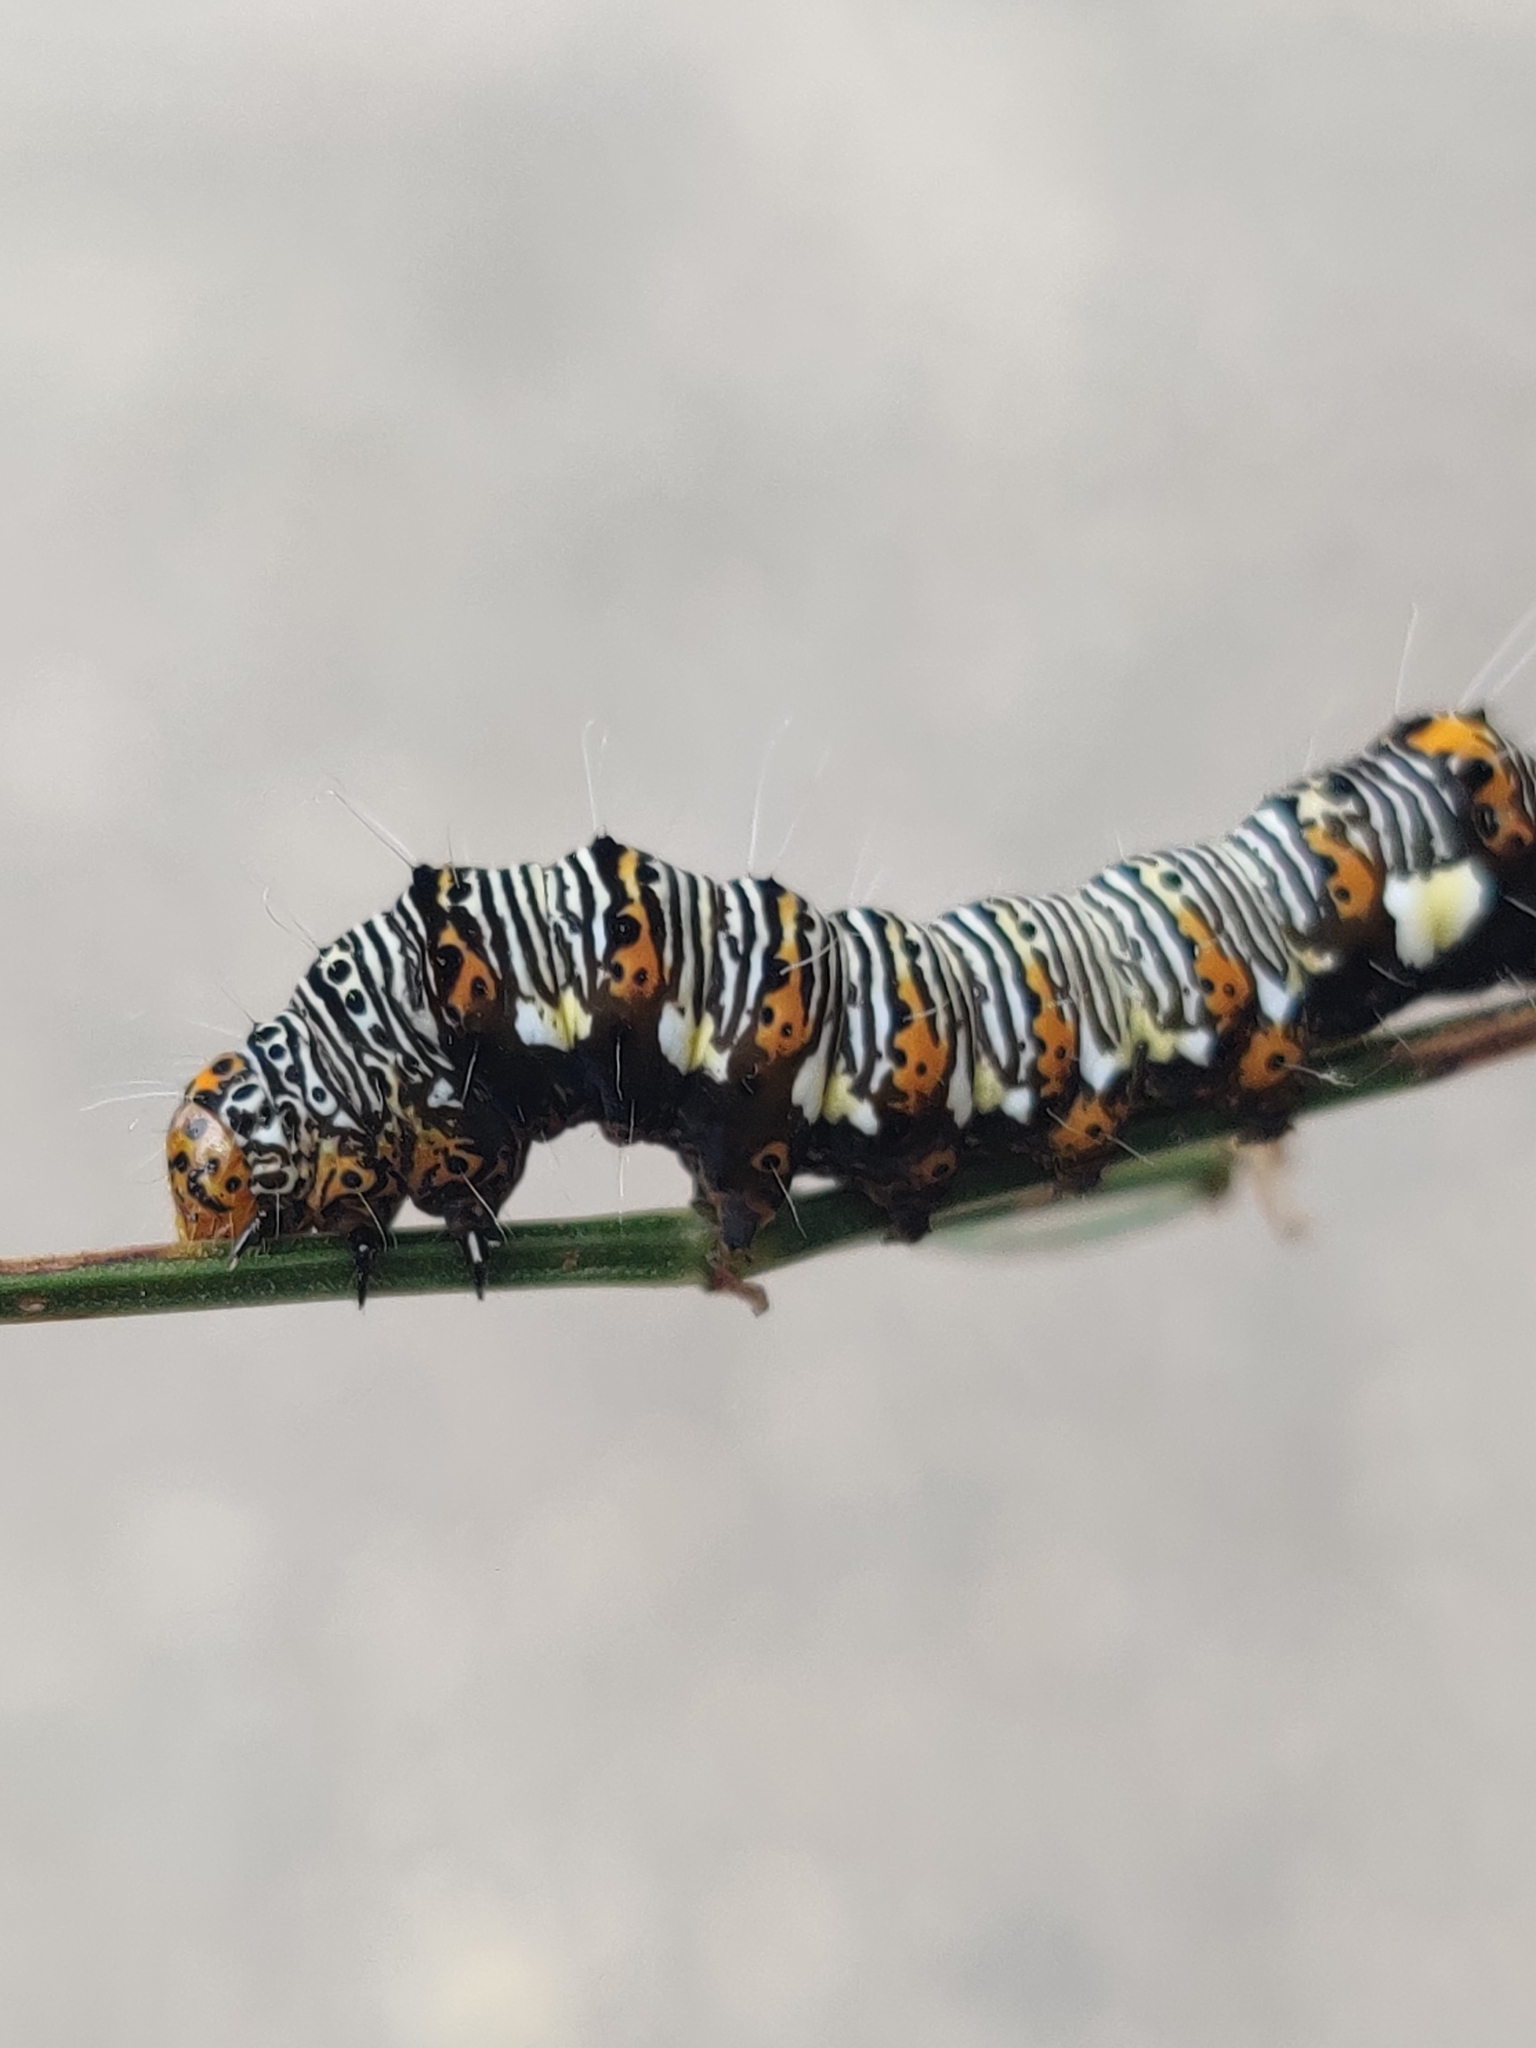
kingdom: Animalia
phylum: Arthropoda
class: Insecta
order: Lepidoptera
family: Noctuidae
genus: Alypia
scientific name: Alypia octomaculata
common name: Eight-spotted forester
